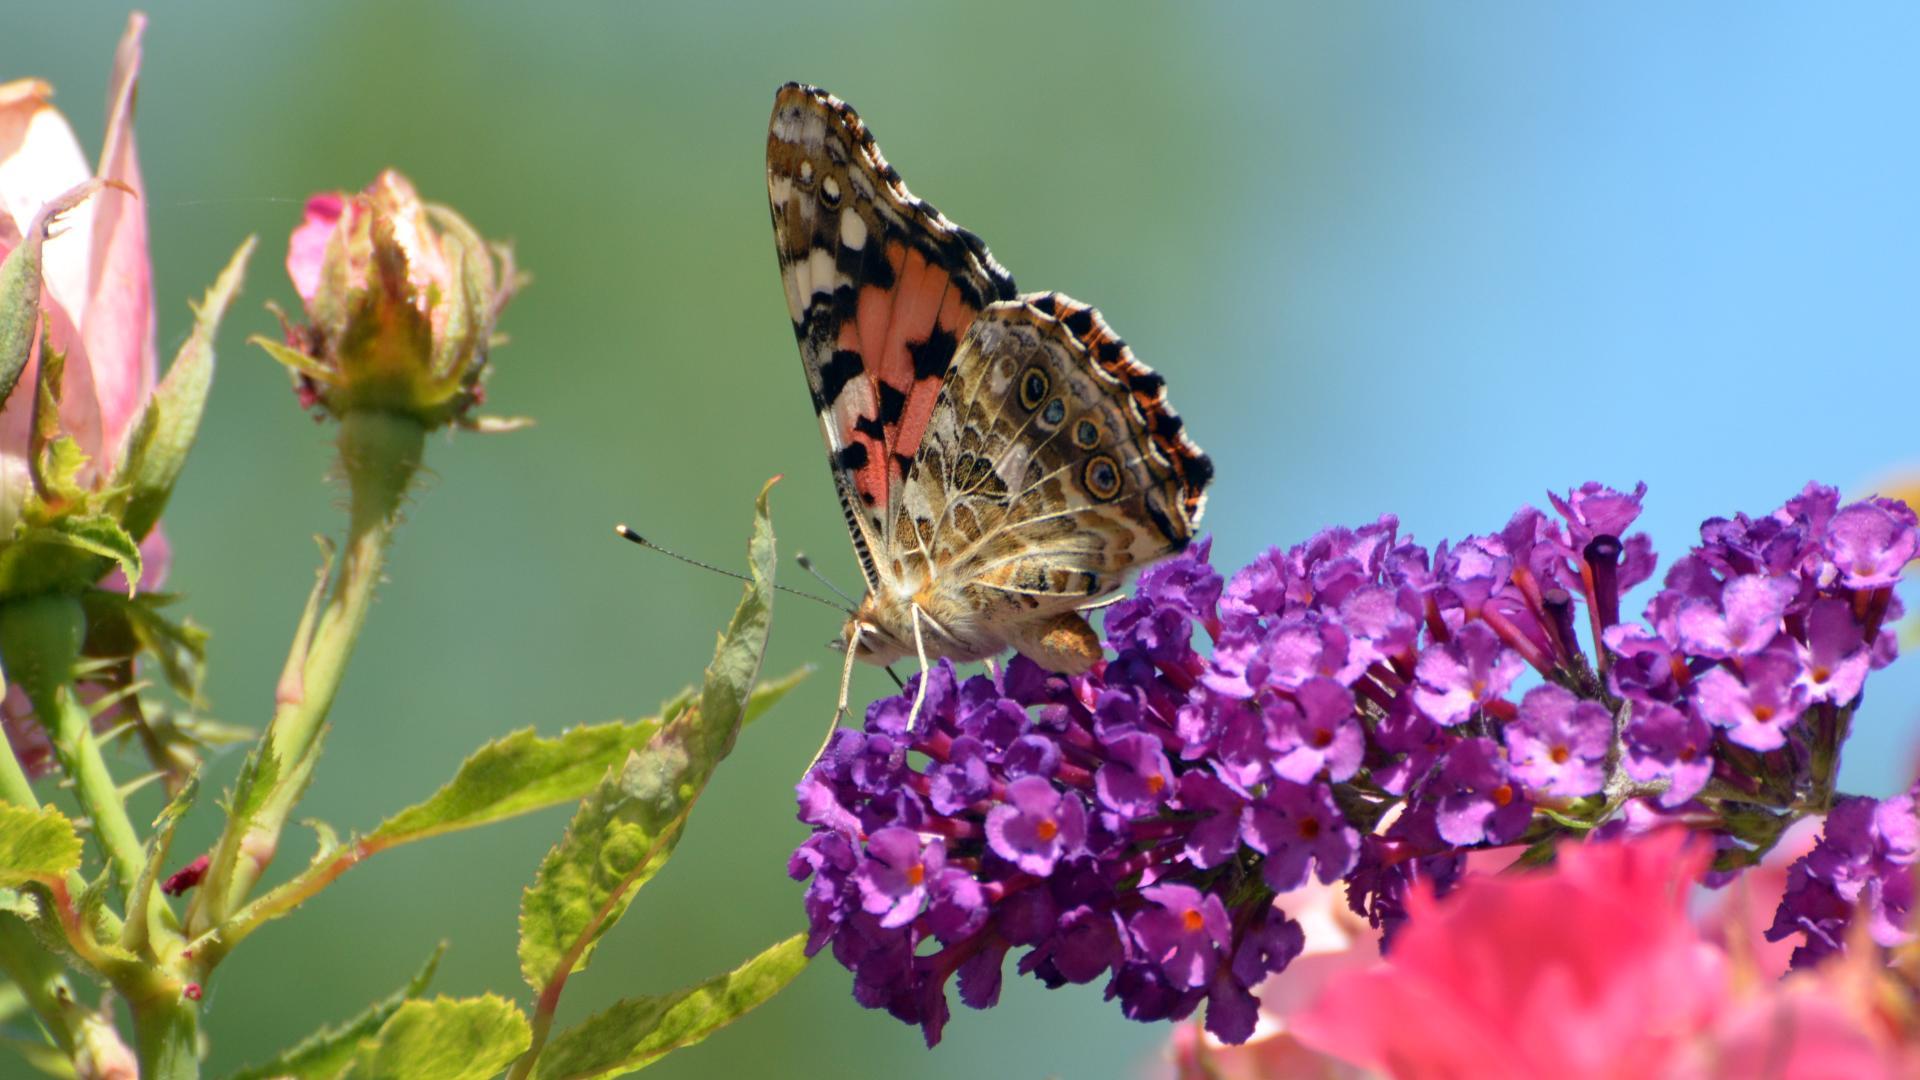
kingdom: Animalia
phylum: Arthropoda
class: Insecta
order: Lepidoptera
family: Nymphalidae
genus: Vanessa
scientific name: Vanessa cardui
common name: Painted lady
